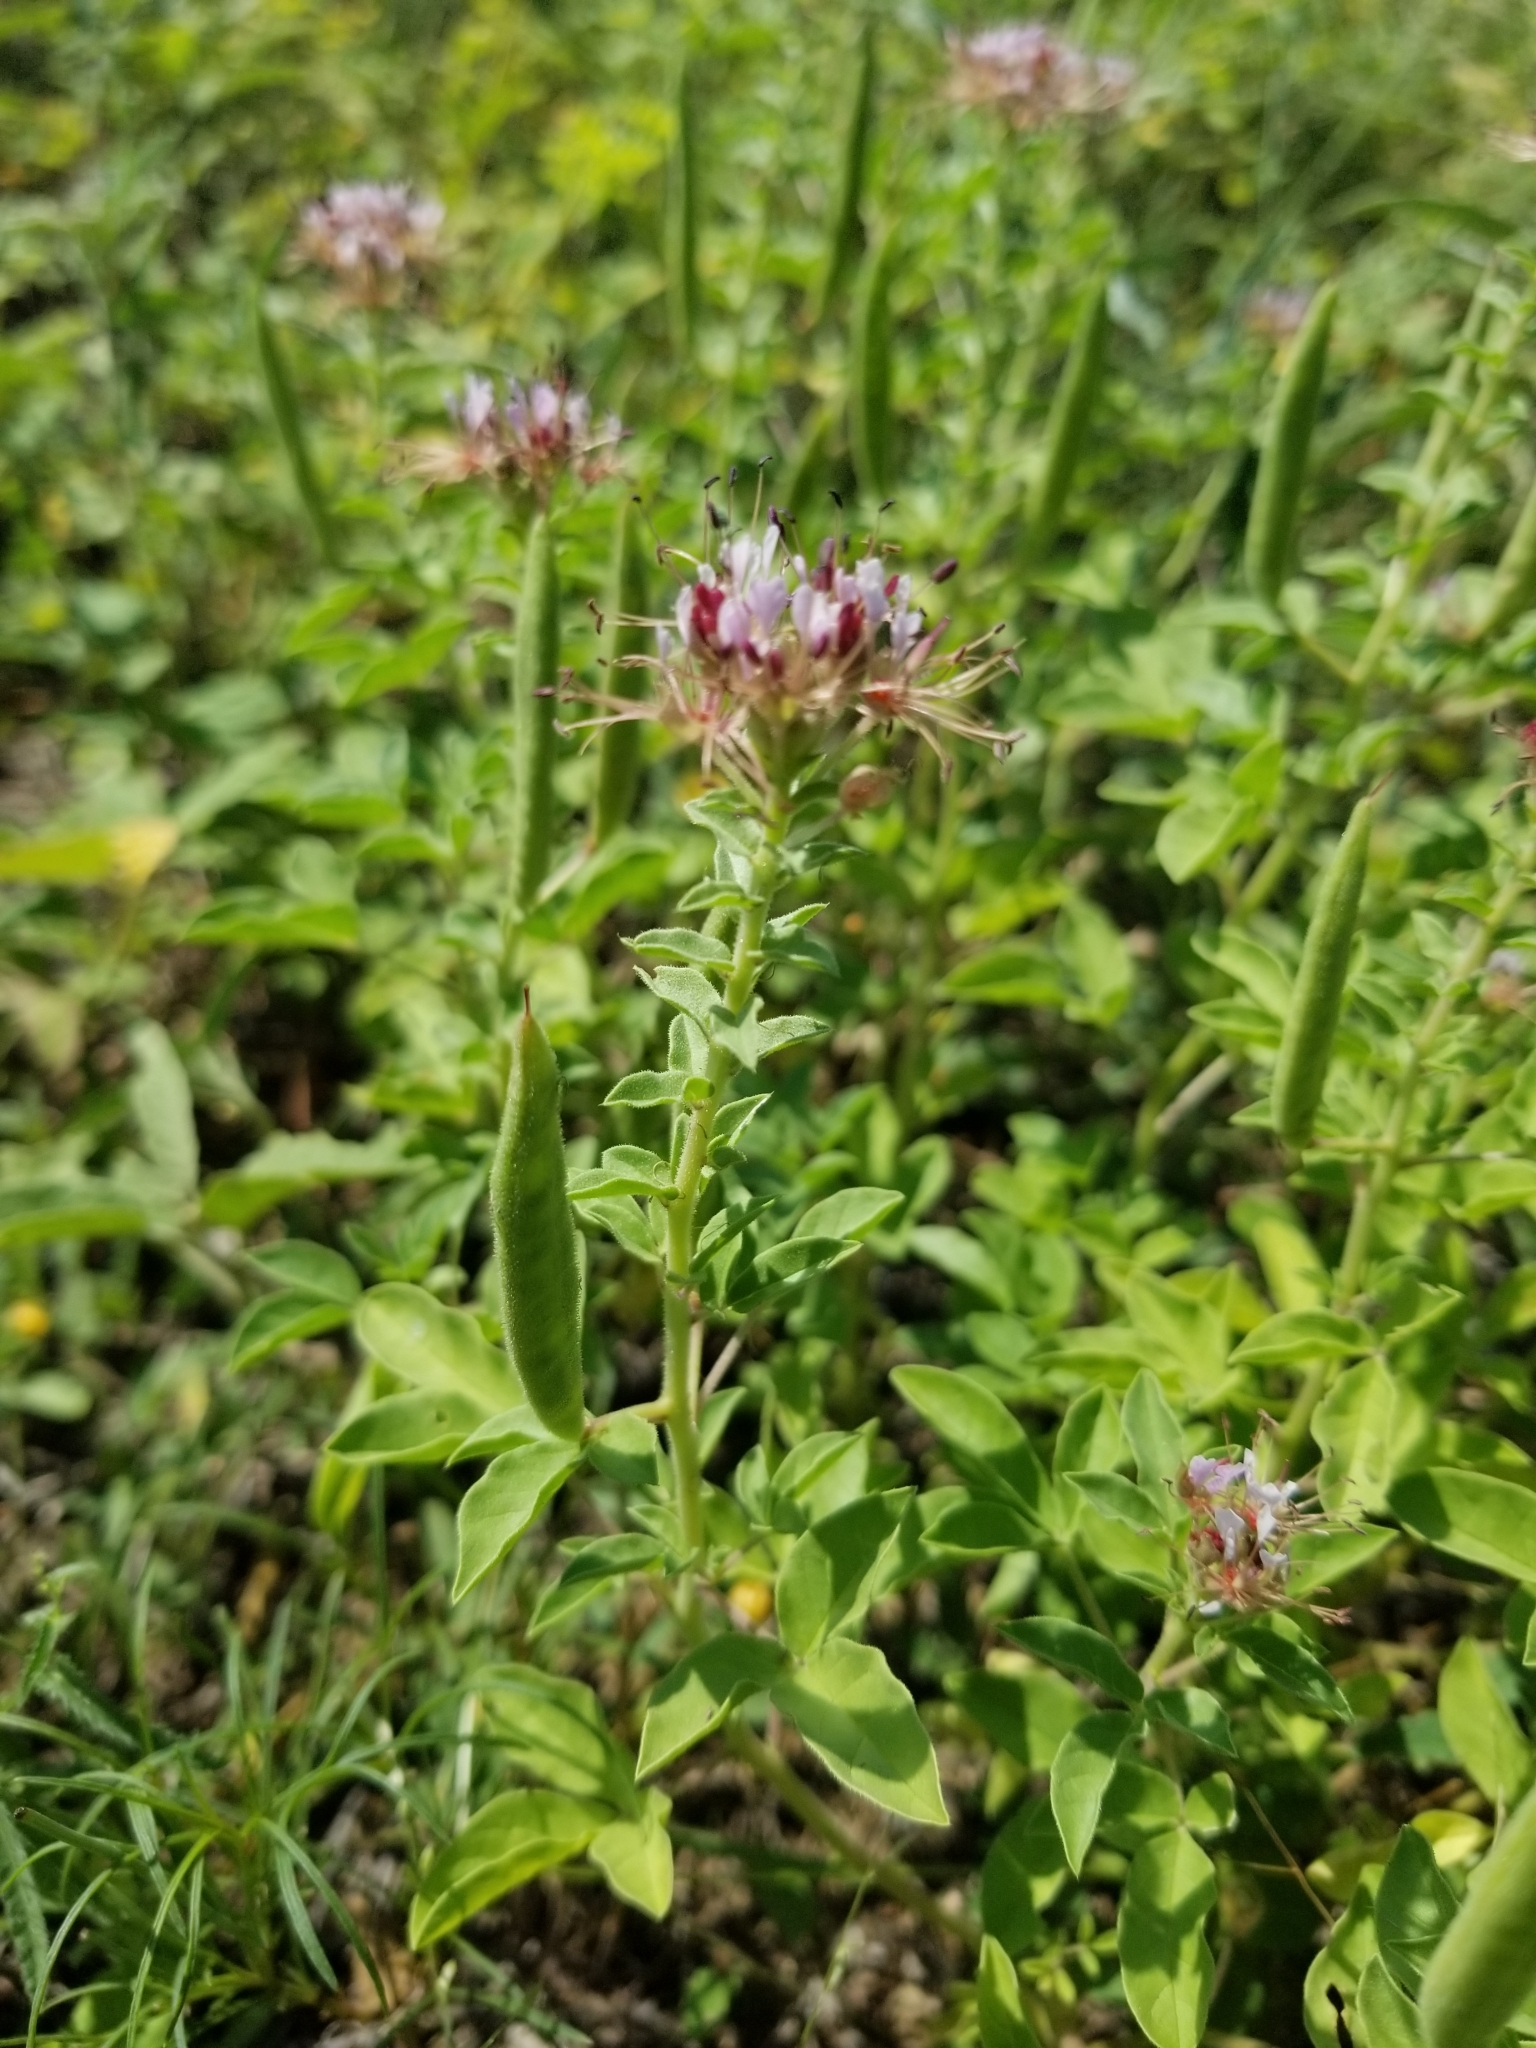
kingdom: Plantae
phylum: Tracheophyta
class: Magnoliopsida
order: Brassicales
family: Cleomaceae
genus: Polanisia
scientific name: Polanisia dodecandra
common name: Clammyweed
